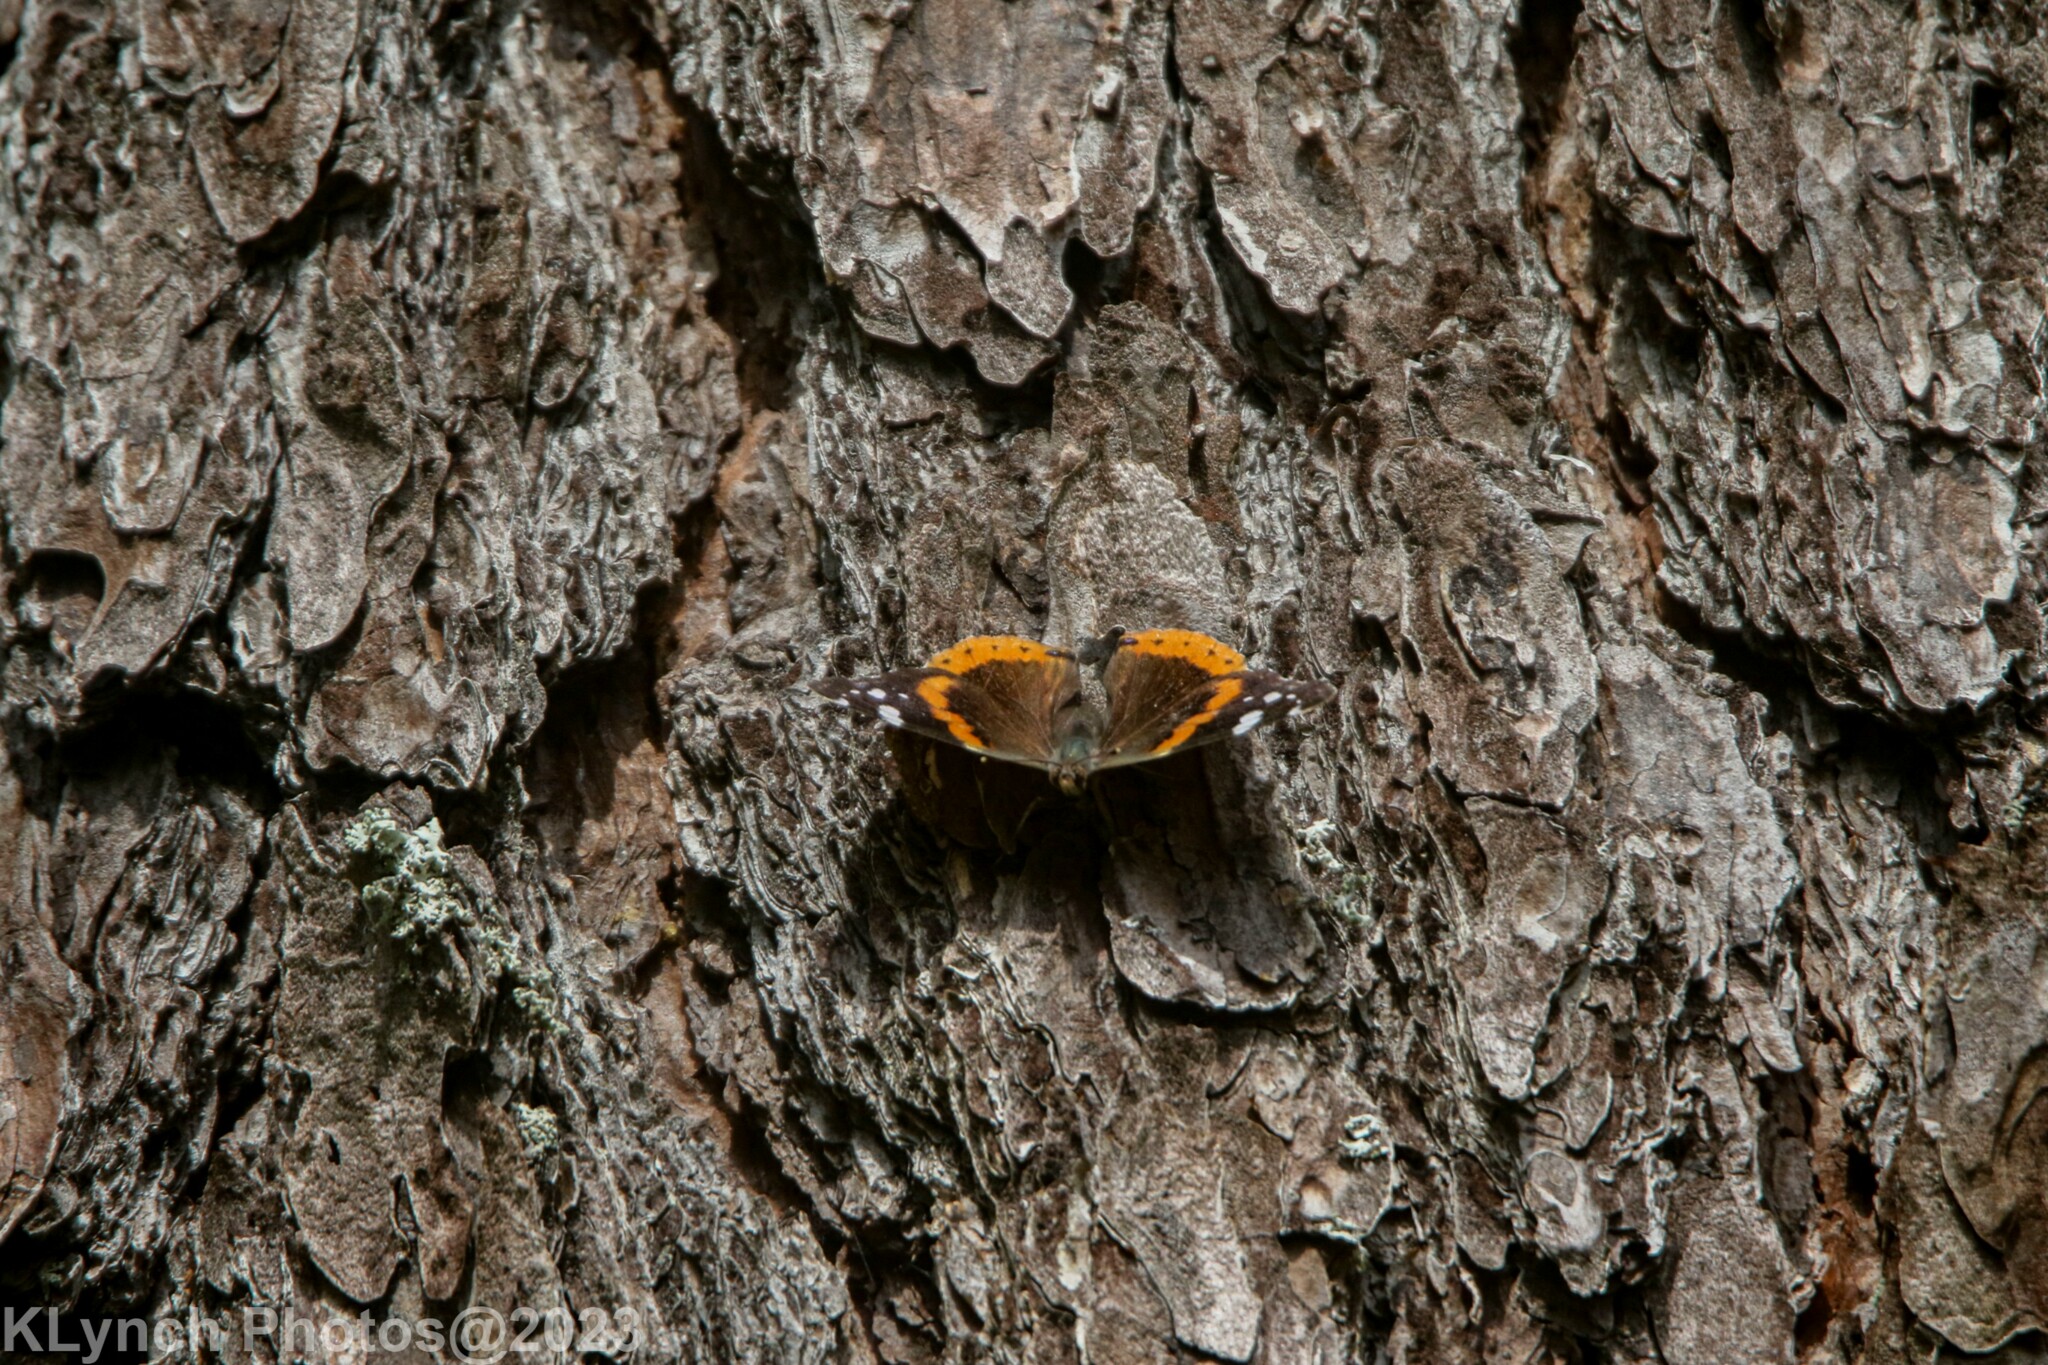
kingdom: Animalia
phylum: Arthropoda
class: Insecta
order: Lepidoptera
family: Nymphalidae
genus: Vanessa
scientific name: Vanessa atalanta
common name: Red admiral
